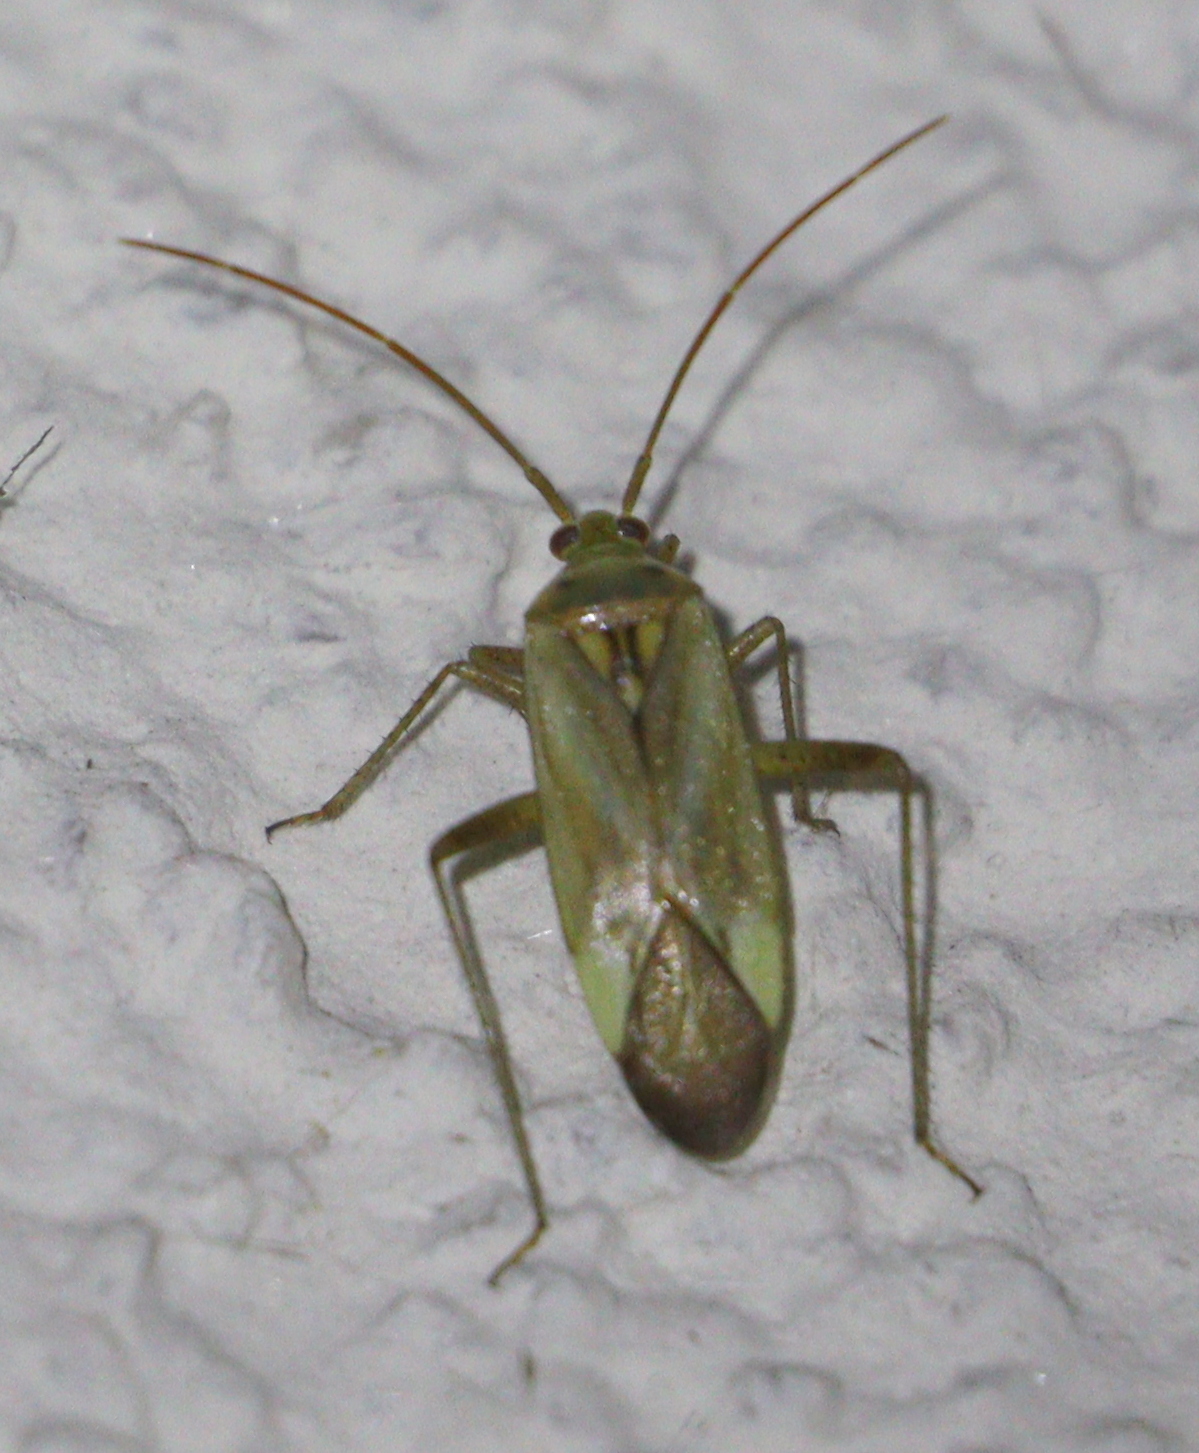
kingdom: Animalia
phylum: Arthropoda
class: Insecta
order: Hemiptera
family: Miridae
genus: Adelphocoris
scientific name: Adelphocoris lineolatus
